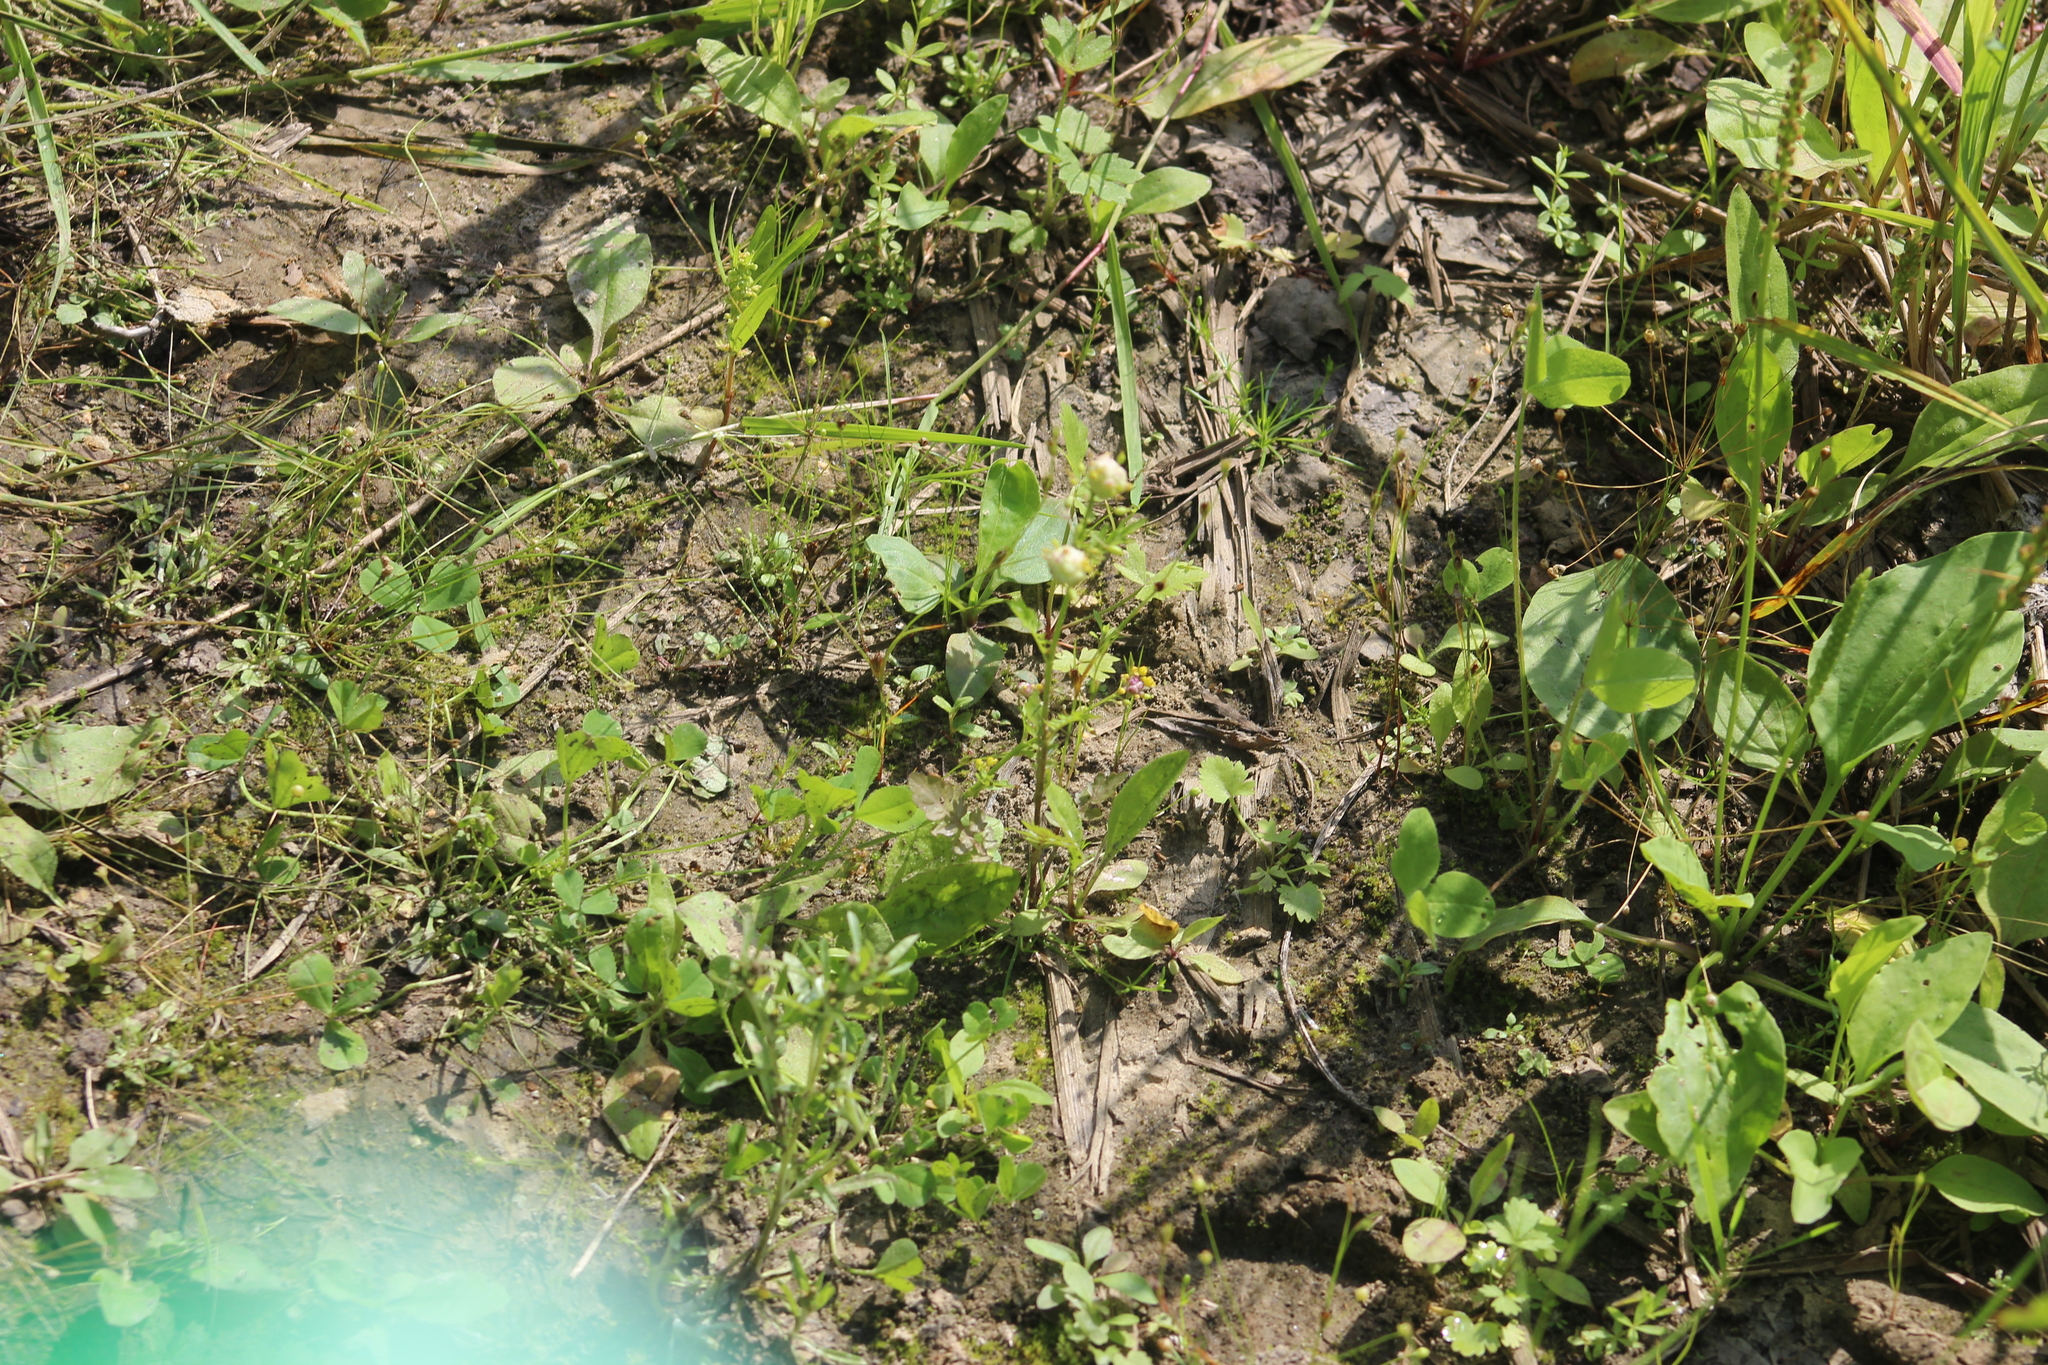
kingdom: Plantae
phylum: Tracheophyta
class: Magnoliopsida
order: Brassicales
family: Brassicaceae
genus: Rorippa
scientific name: Rorippa palustris
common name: Marsh yellow-cress
